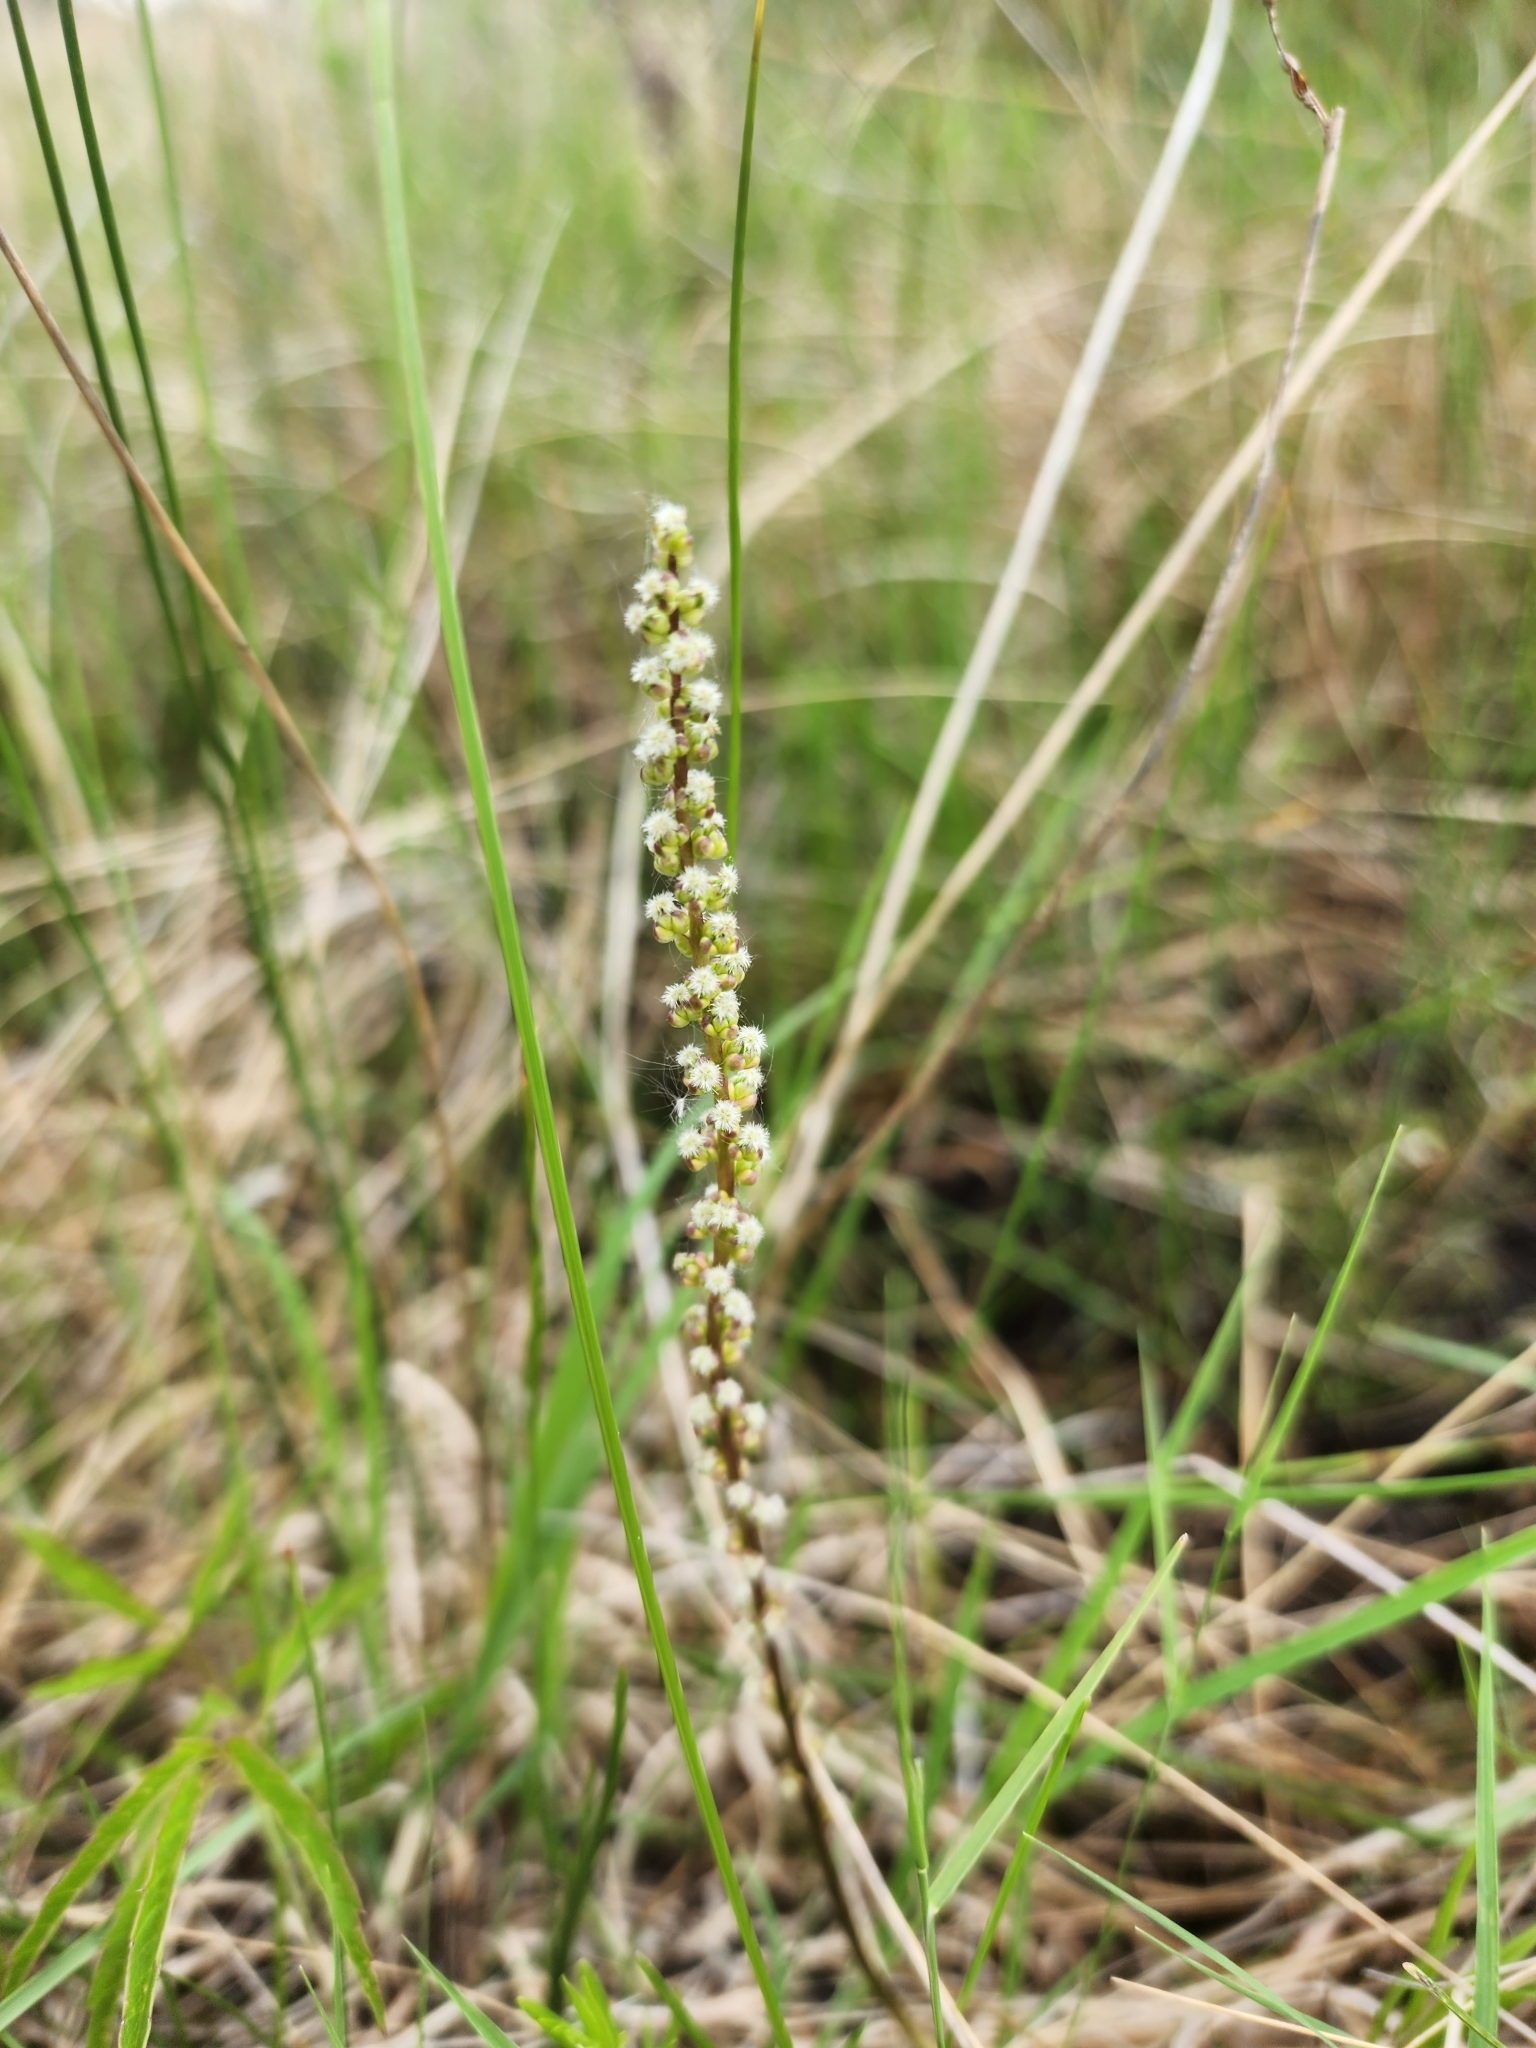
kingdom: Plantae
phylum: Tracheophyta
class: Liliopsida
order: Alismatales
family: Juncaginaceae
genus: Triglochin
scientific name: Triglochin maritima
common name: Sea arrowgrass
